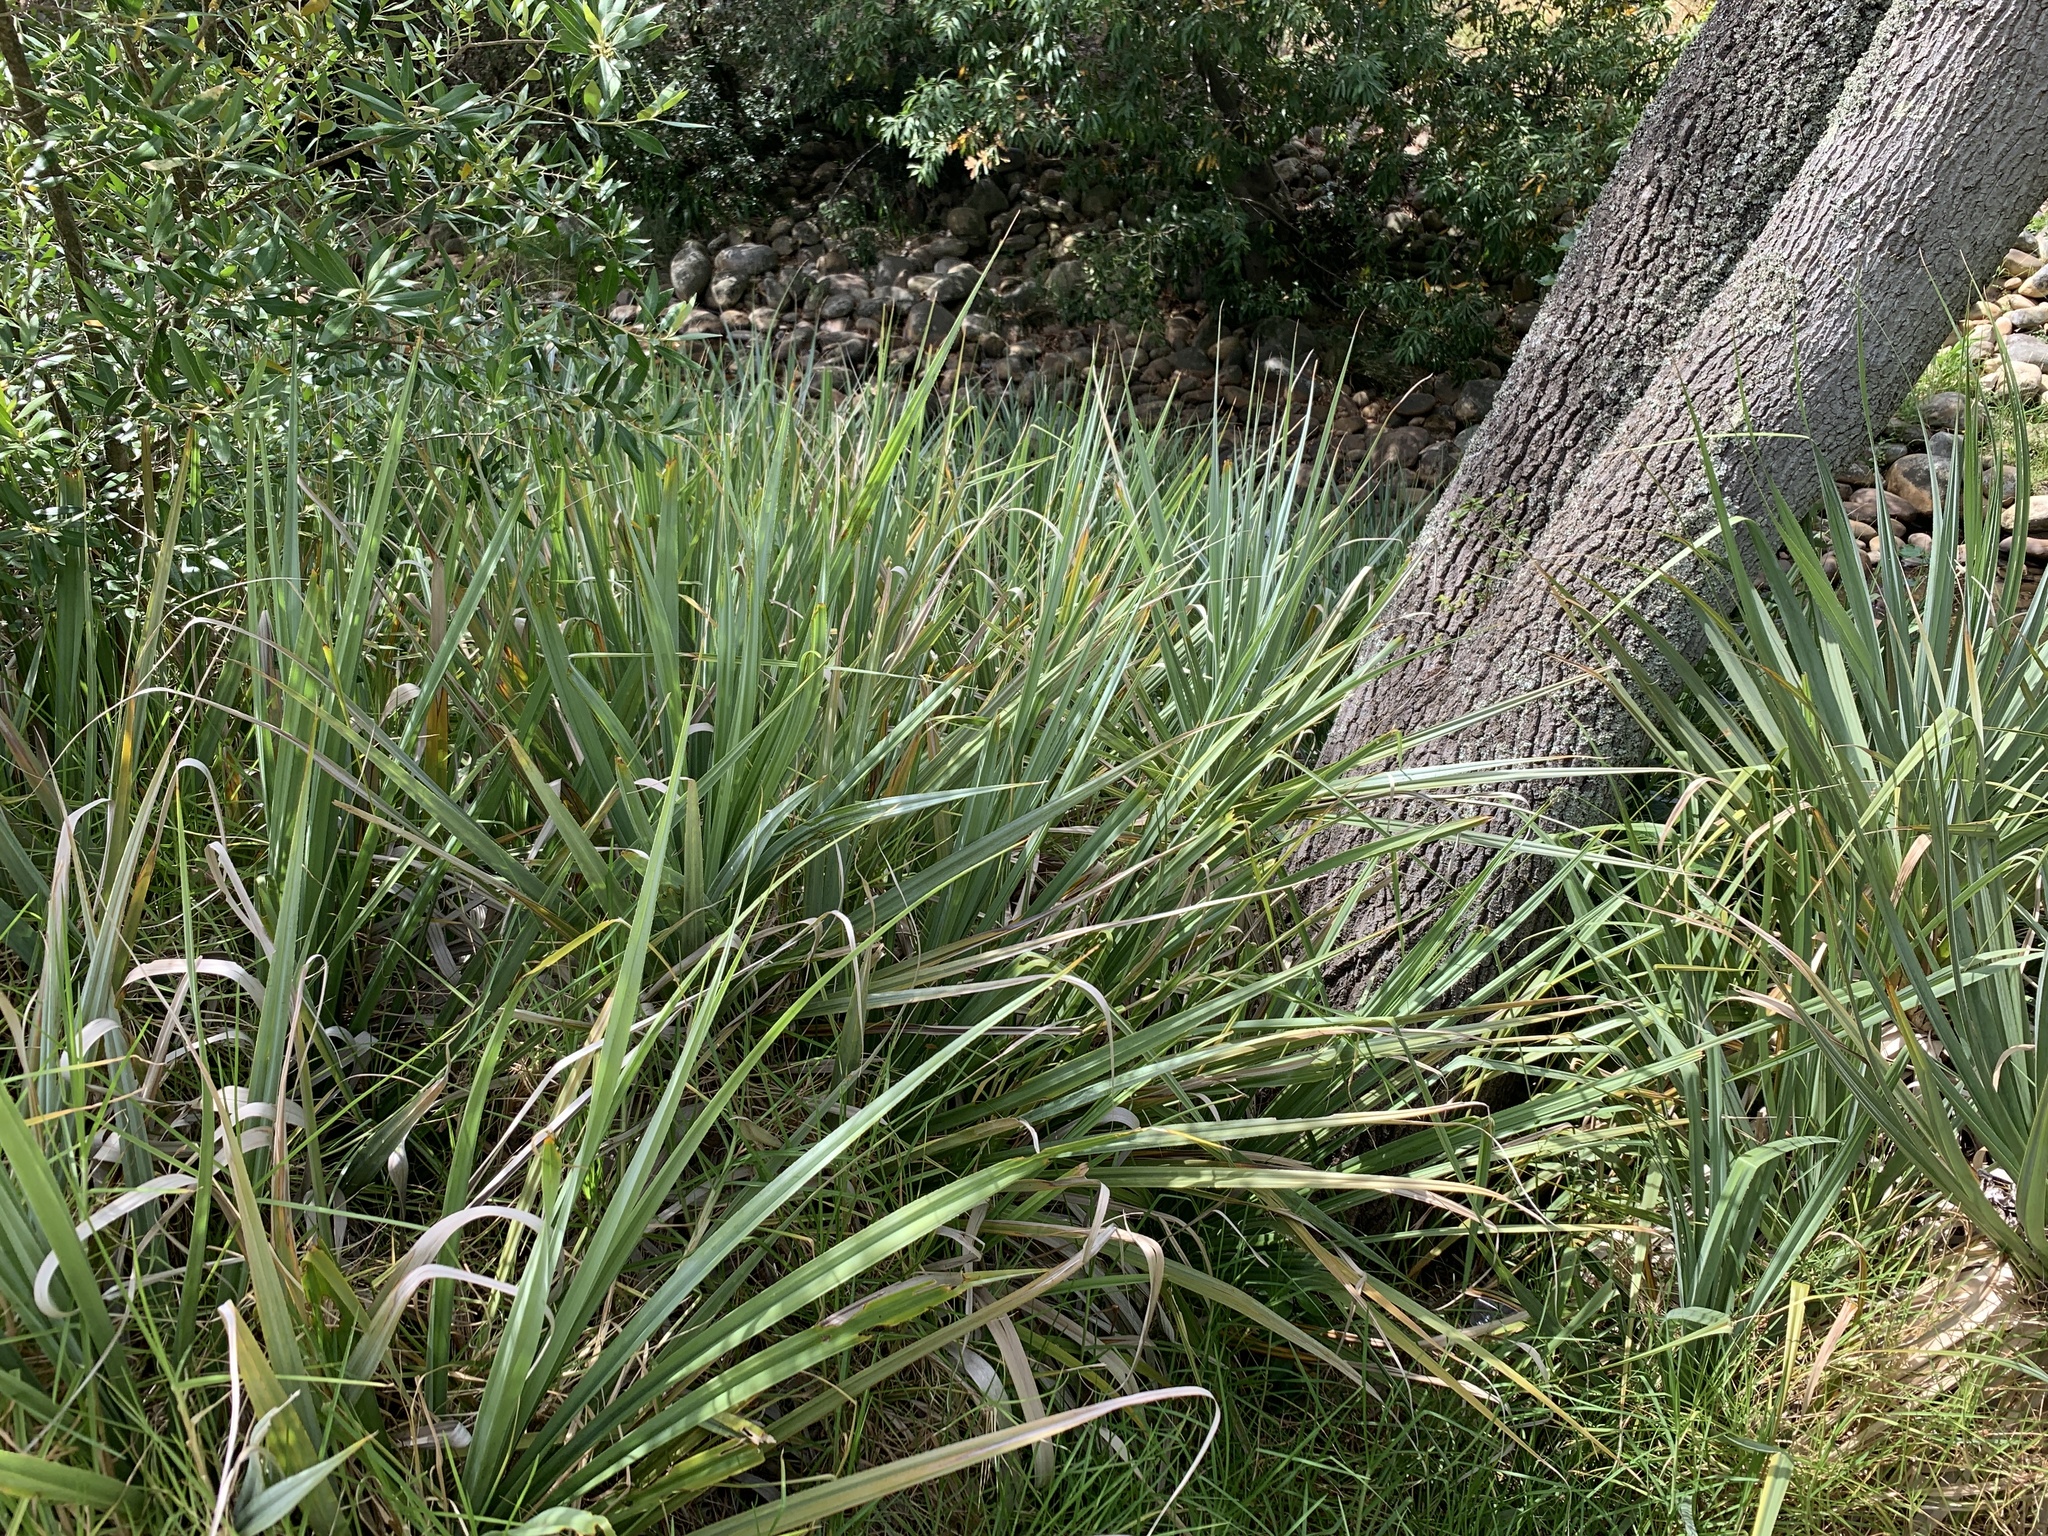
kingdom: Plantae
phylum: Tracheophyta
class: Liliopsida
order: Poales
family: Thurniaceae
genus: Prionium
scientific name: Prionium serratum
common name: Palmiet
